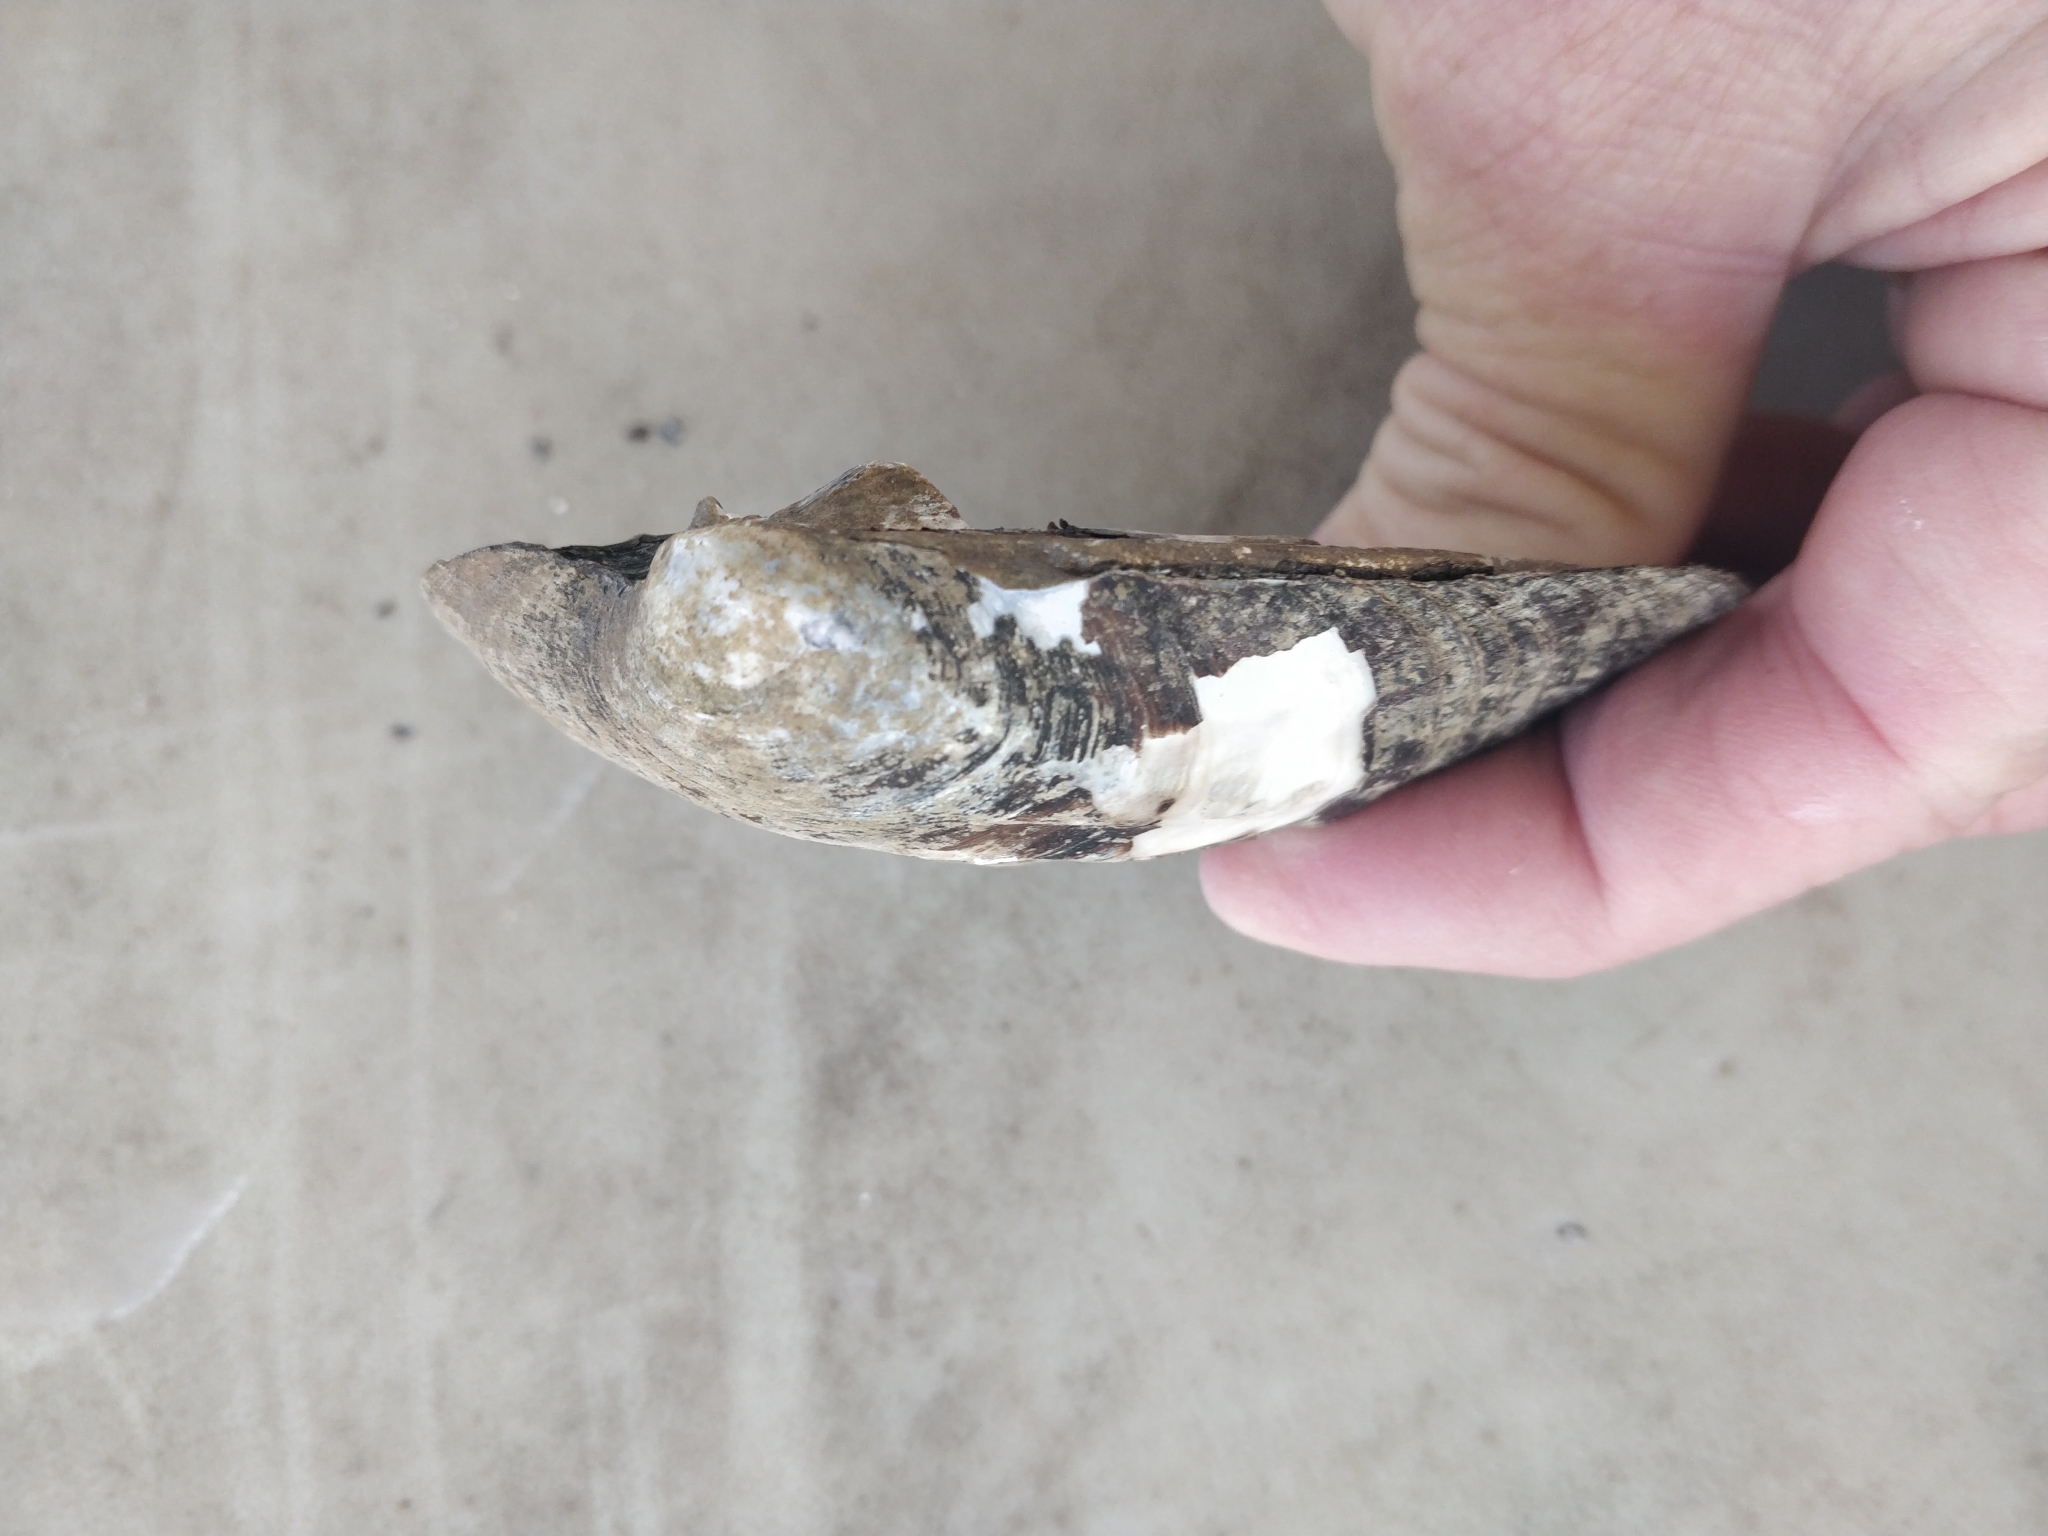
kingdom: Animalia
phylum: Mollusca
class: Bivalvia
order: Unionida
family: Unionidae
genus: Amblema
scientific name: Amblema plicata
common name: Threeridge
